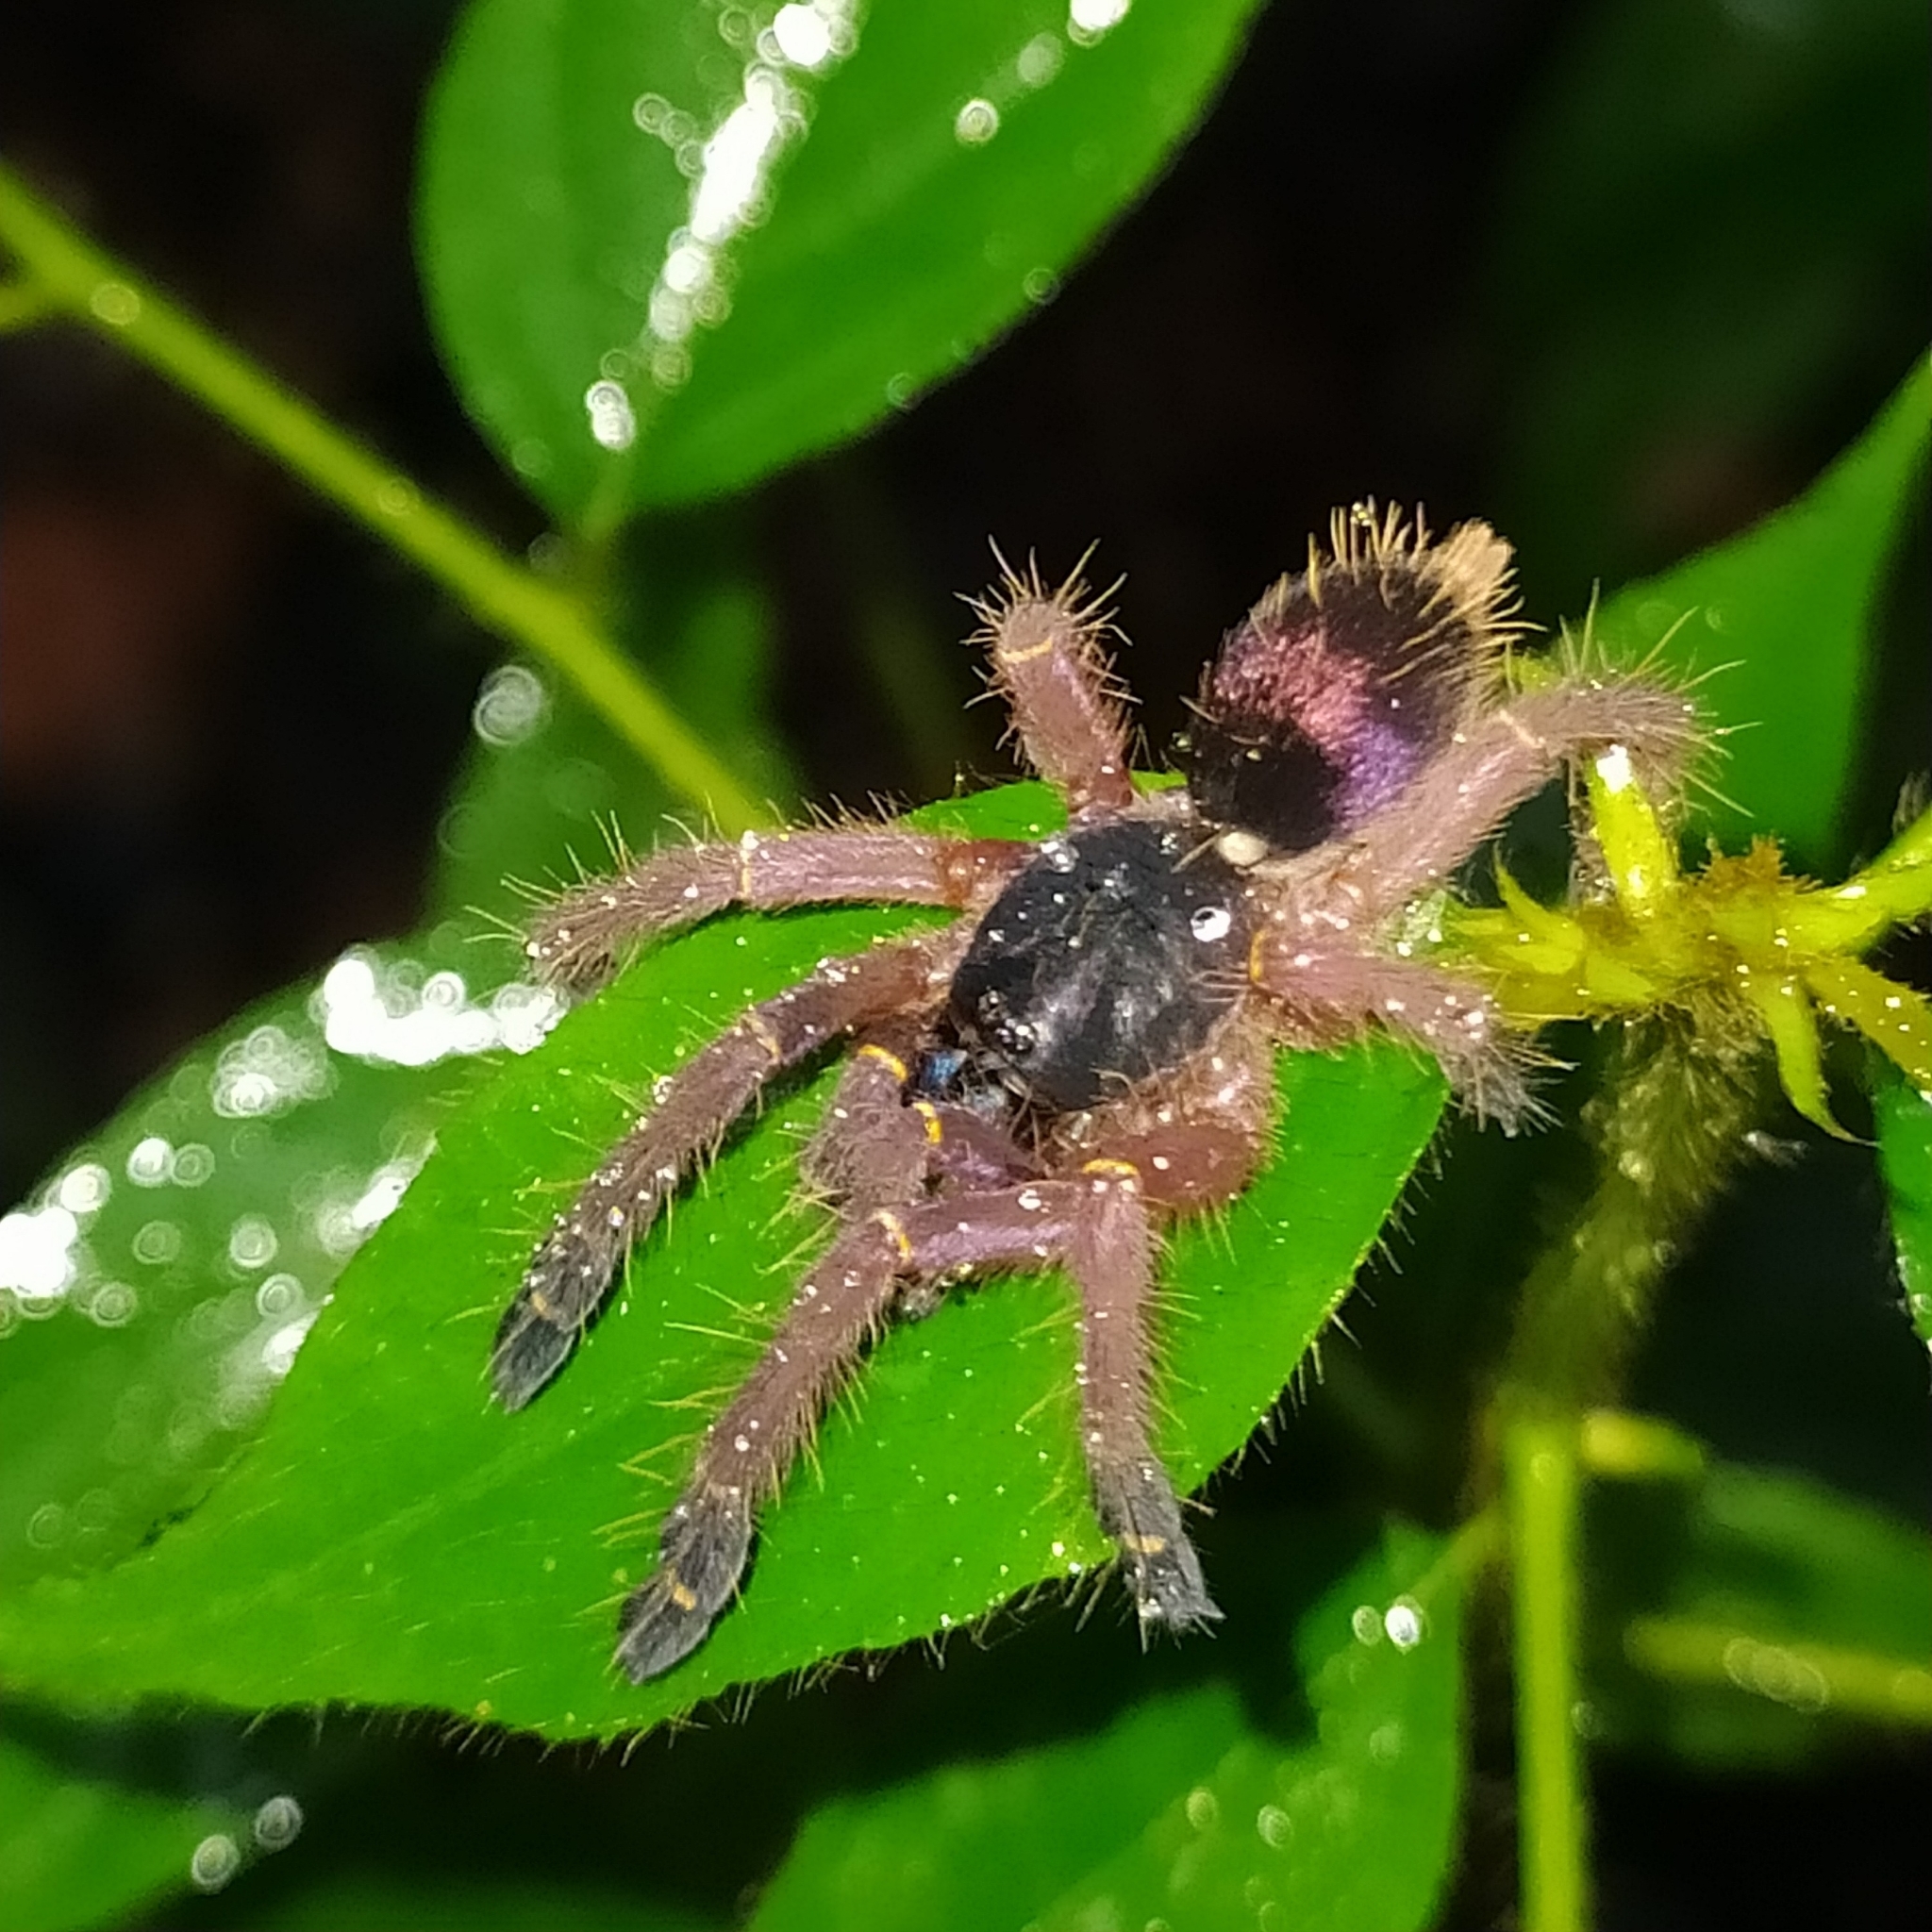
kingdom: Animalia
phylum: Arthropoda
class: Arachnida
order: Araneae
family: Theraphosidae
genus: Ephebopus
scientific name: Ephebopus cyanognathus
